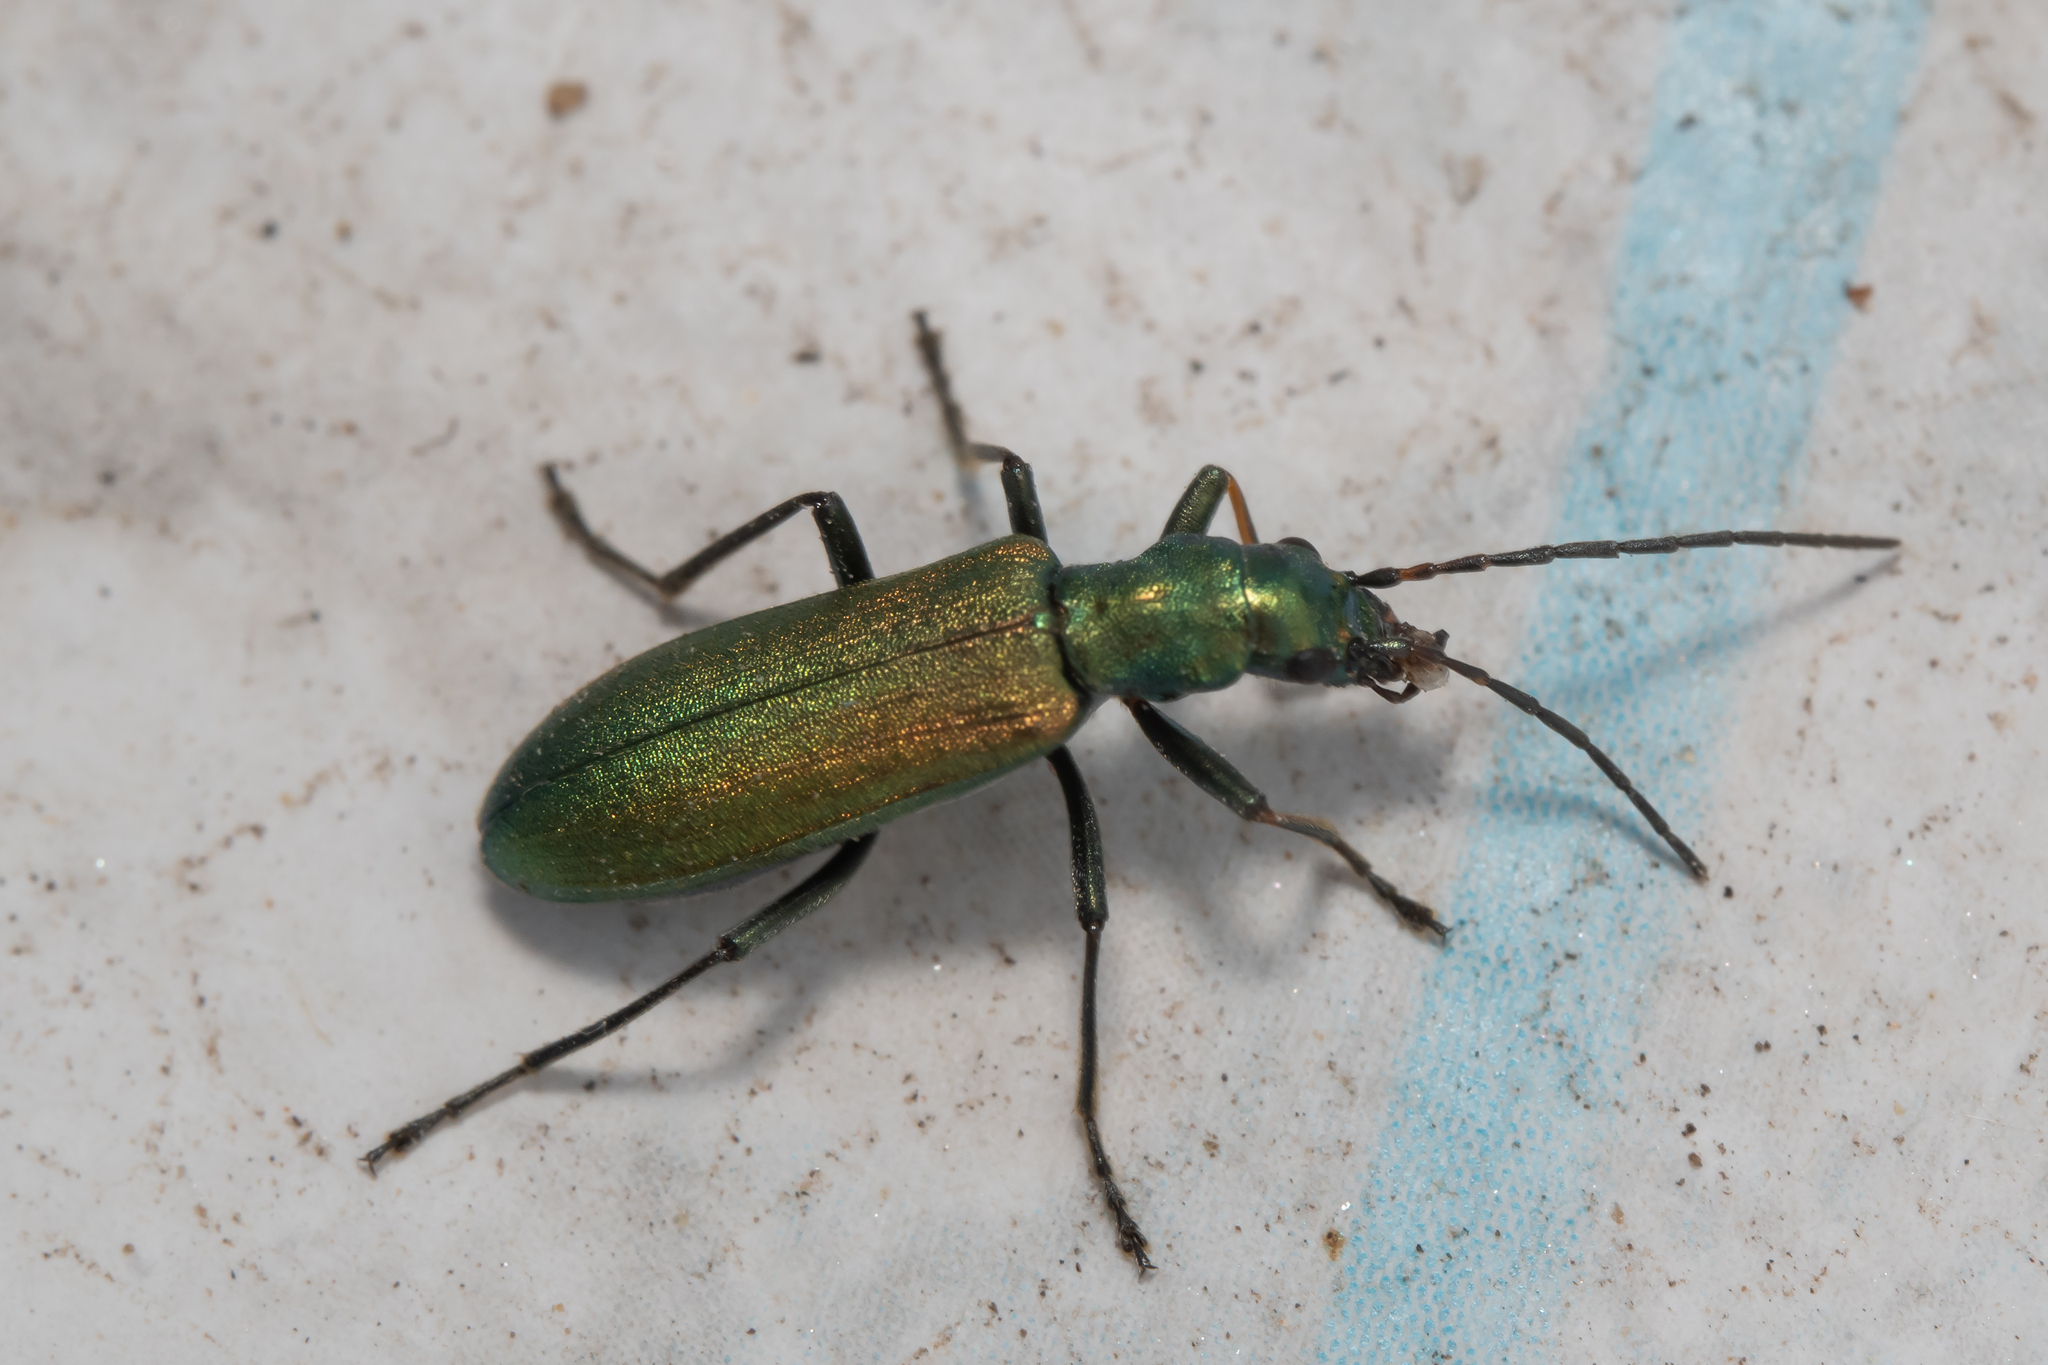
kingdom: Animalia
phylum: Arthropoda
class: Insecta
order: Coleoptera
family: Oedemeridae
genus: Chrysanthia
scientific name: Chrysanthia viridissima
